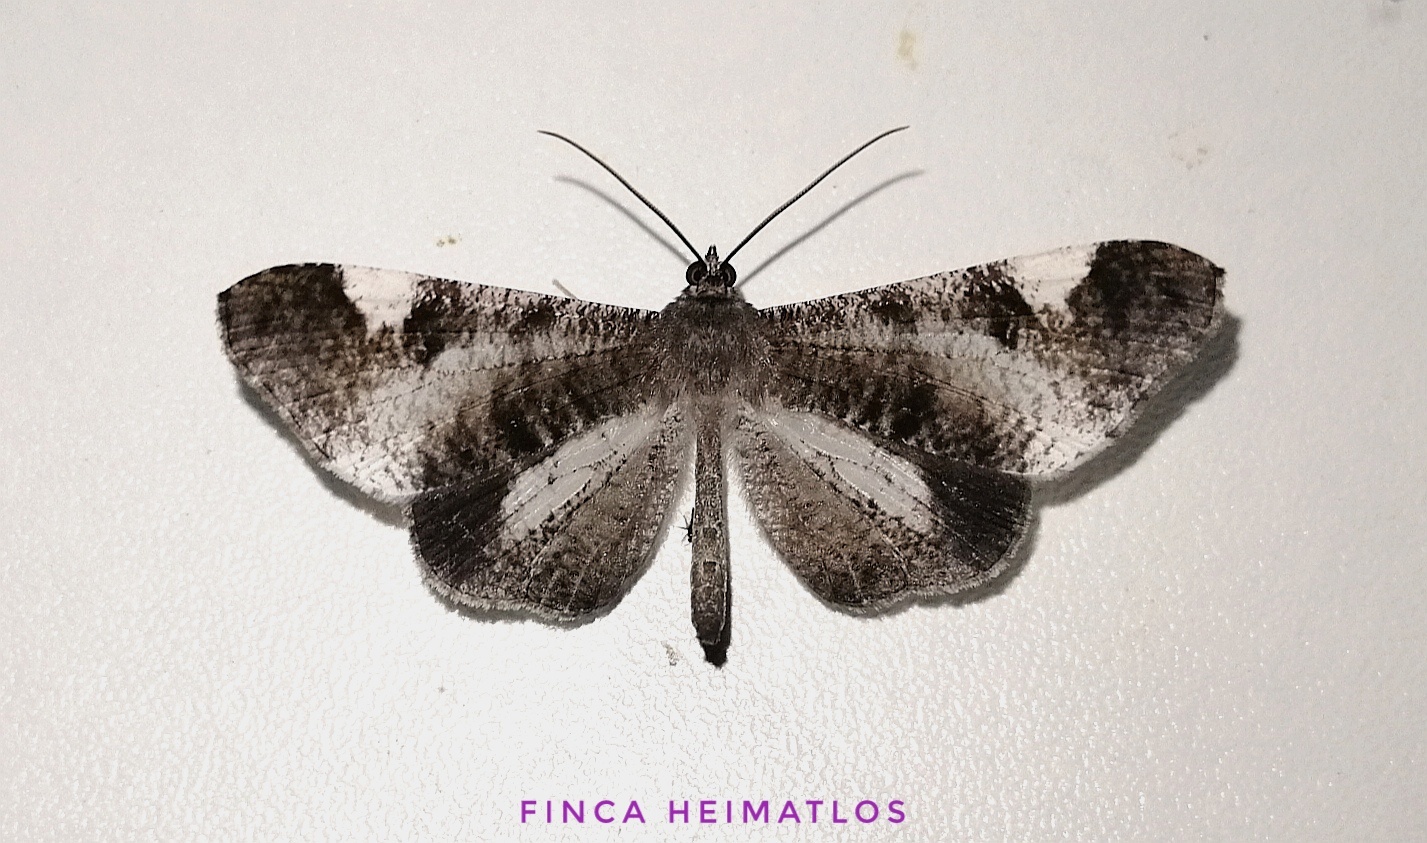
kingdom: Animalia
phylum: Arthropoda
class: Insecta
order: Lepidoptera
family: Hedylidae
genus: Macrosoma
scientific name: Macrosoma conifera
